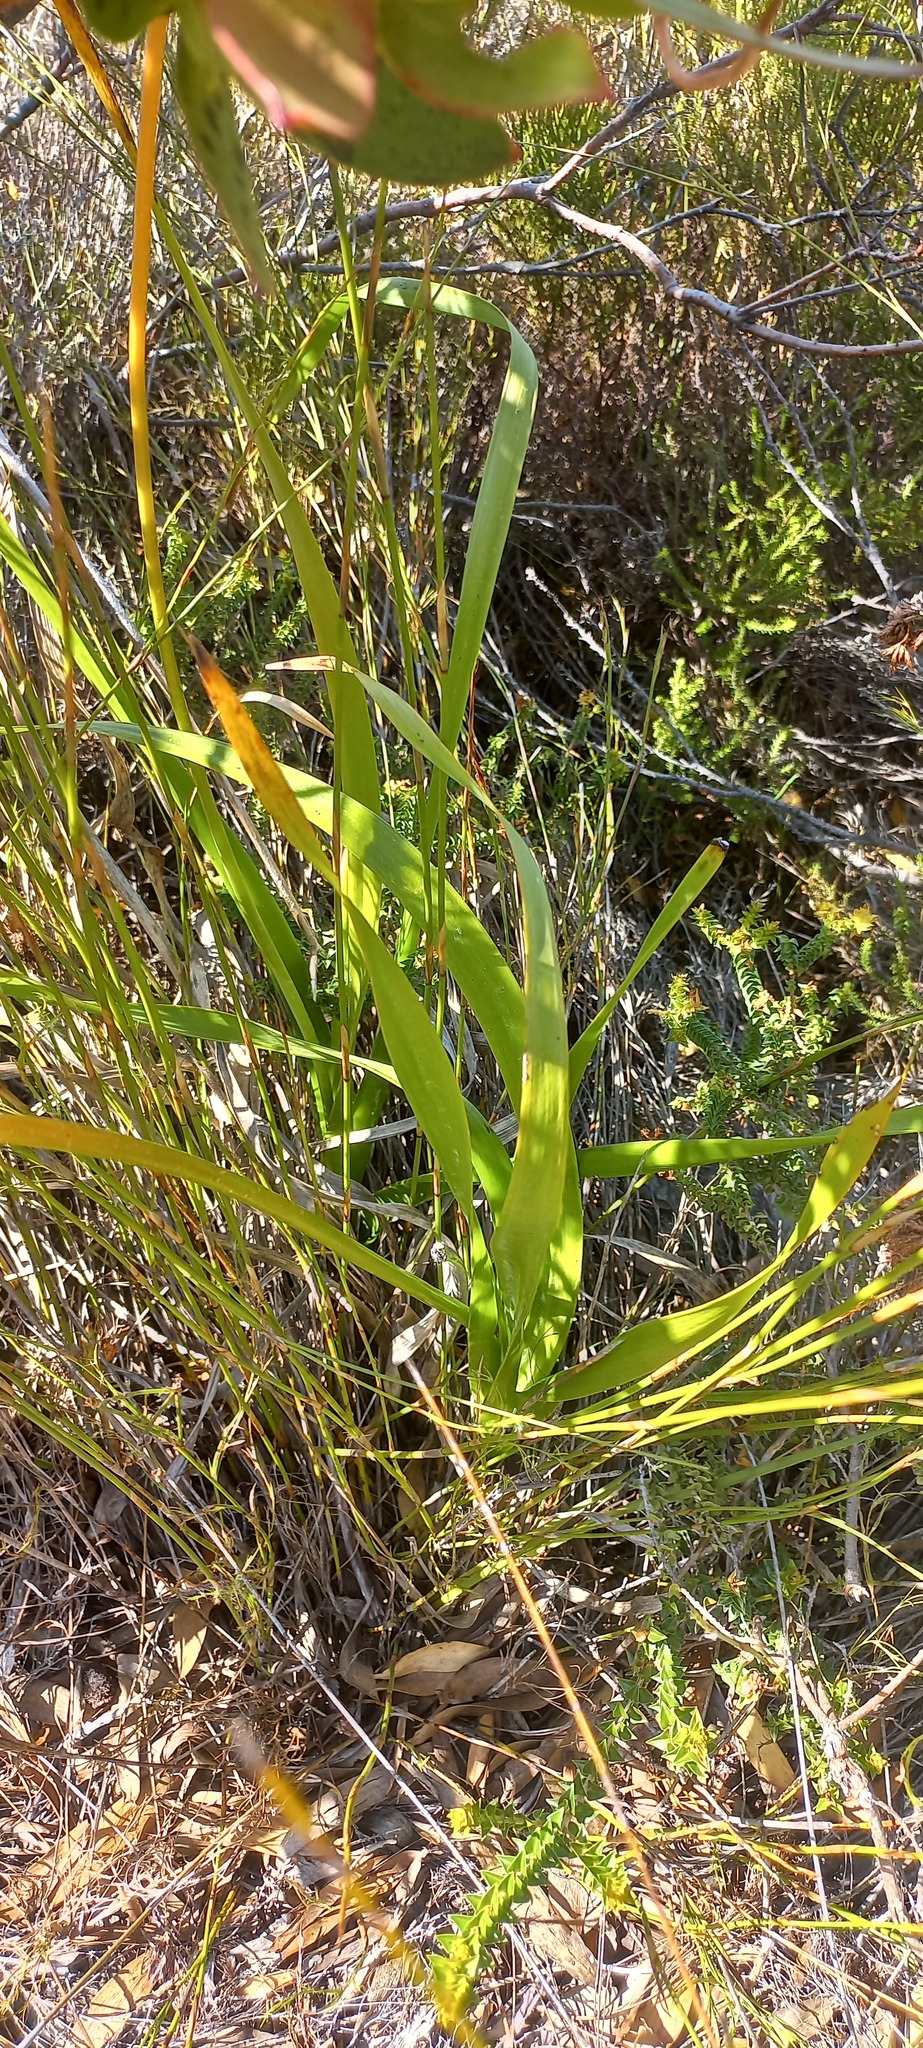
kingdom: Plantae
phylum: Tracheophyta
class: Liliopsida
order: Asparagales
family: Asphodelaceae
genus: Trachyandra
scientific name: Trachyandra tabularis
